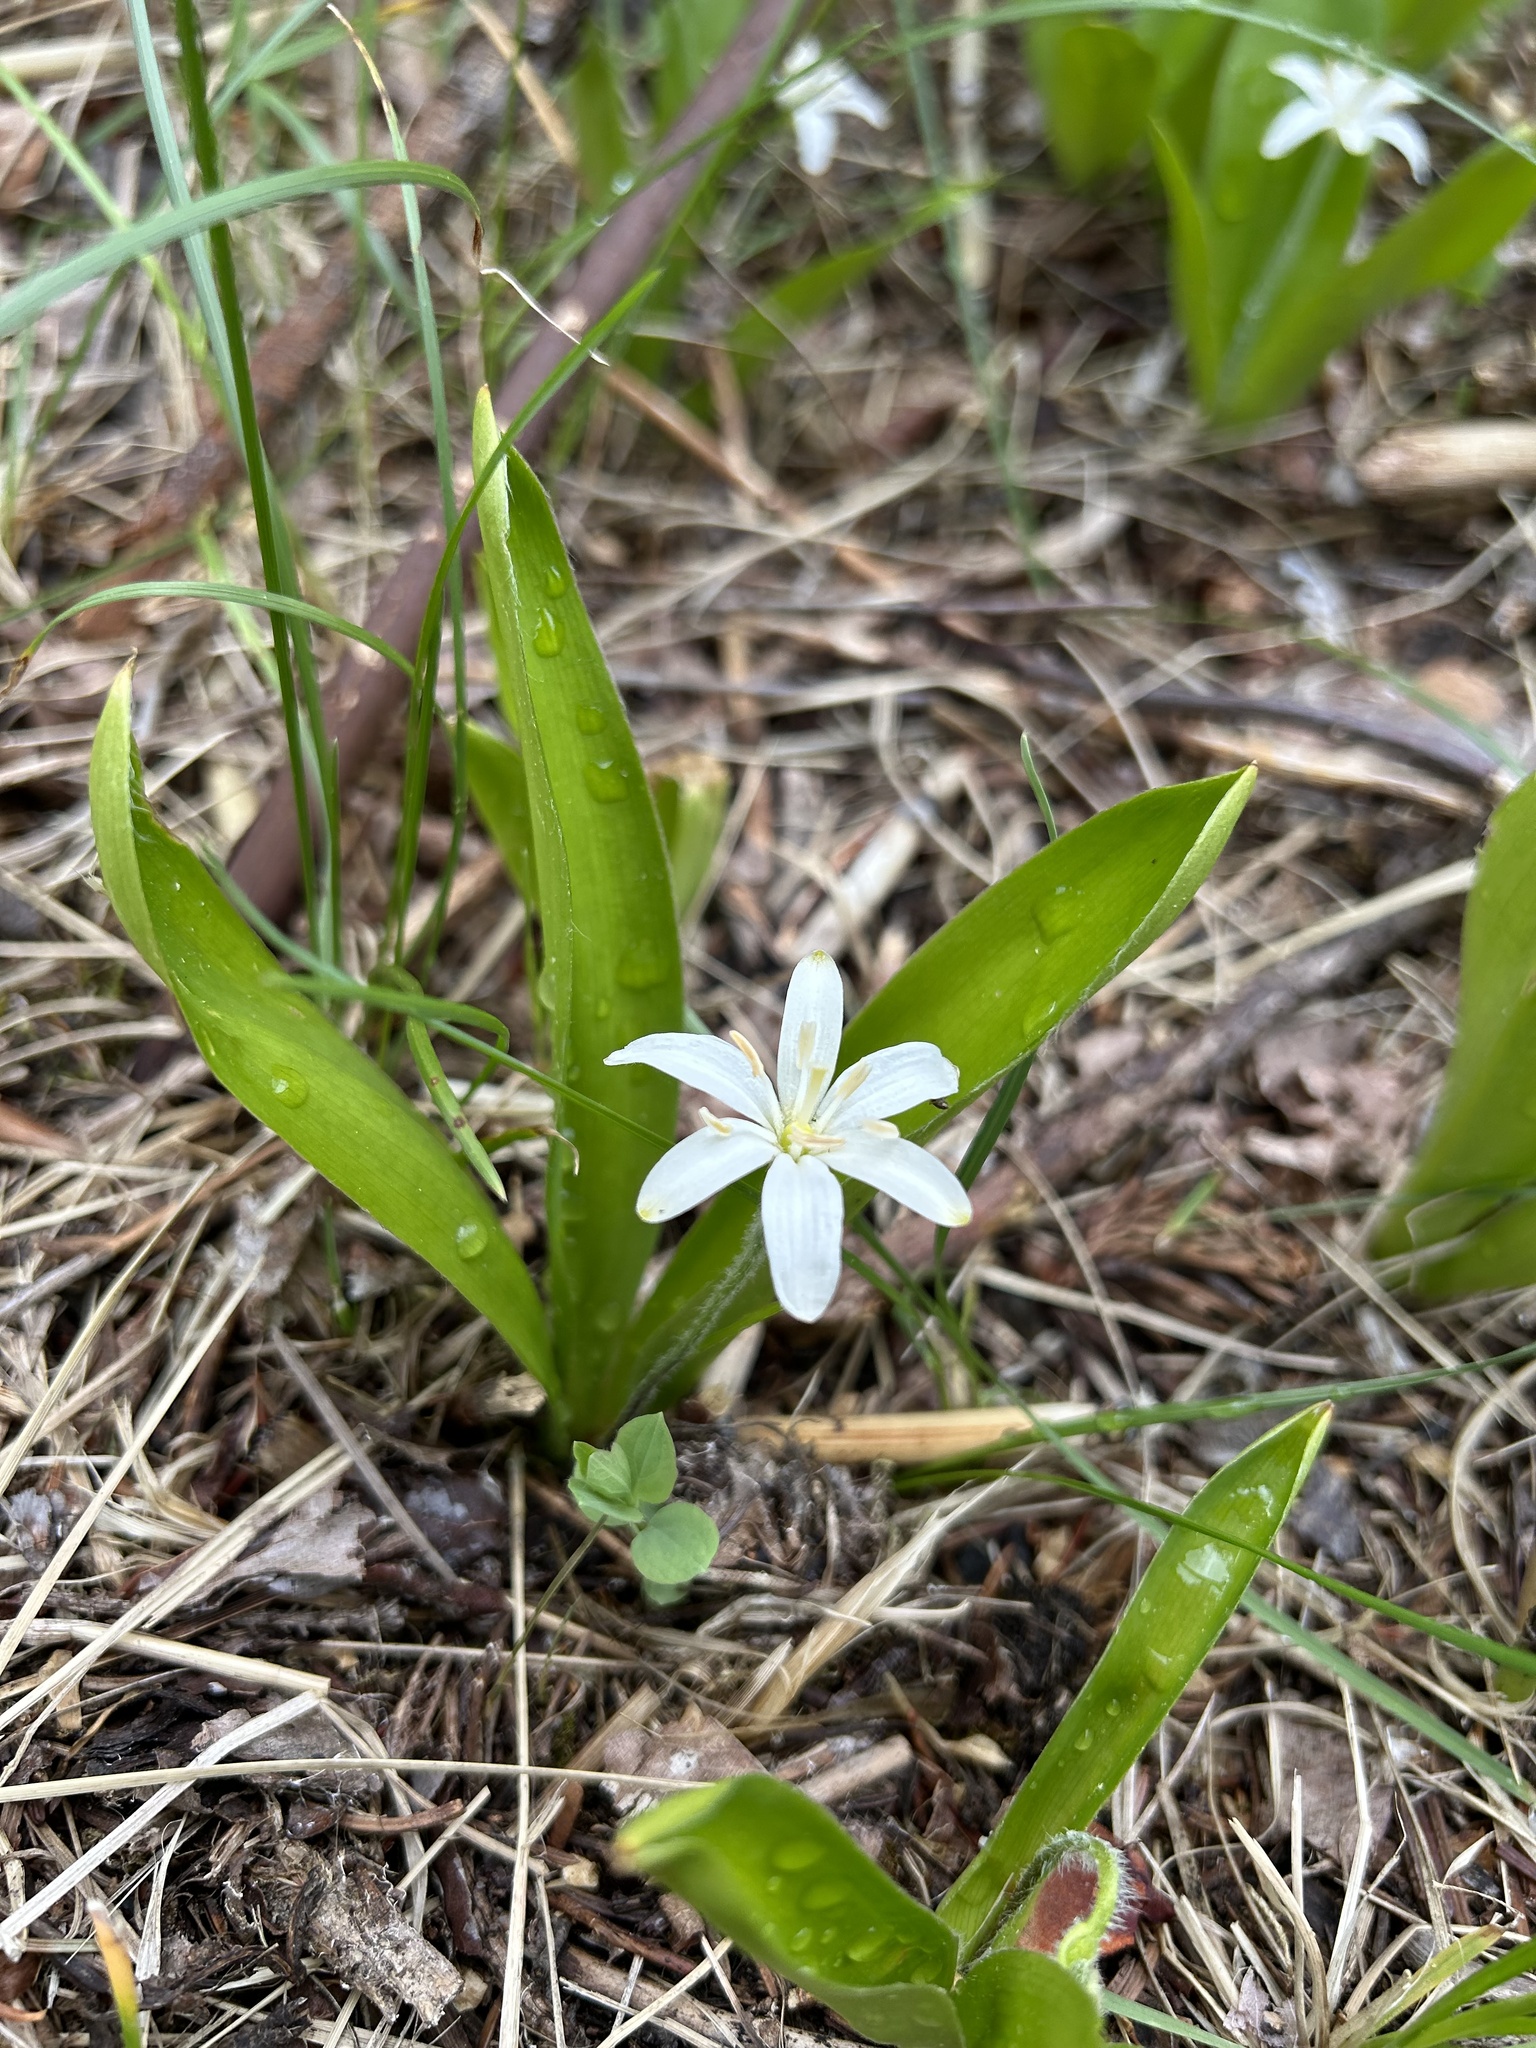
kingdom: Plantae
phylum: Tracheophyta
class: Liliopsida
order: Liliales
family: Liliaceae
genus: Clintonia
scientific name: Clintonia uniflora
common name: Queen's cup
